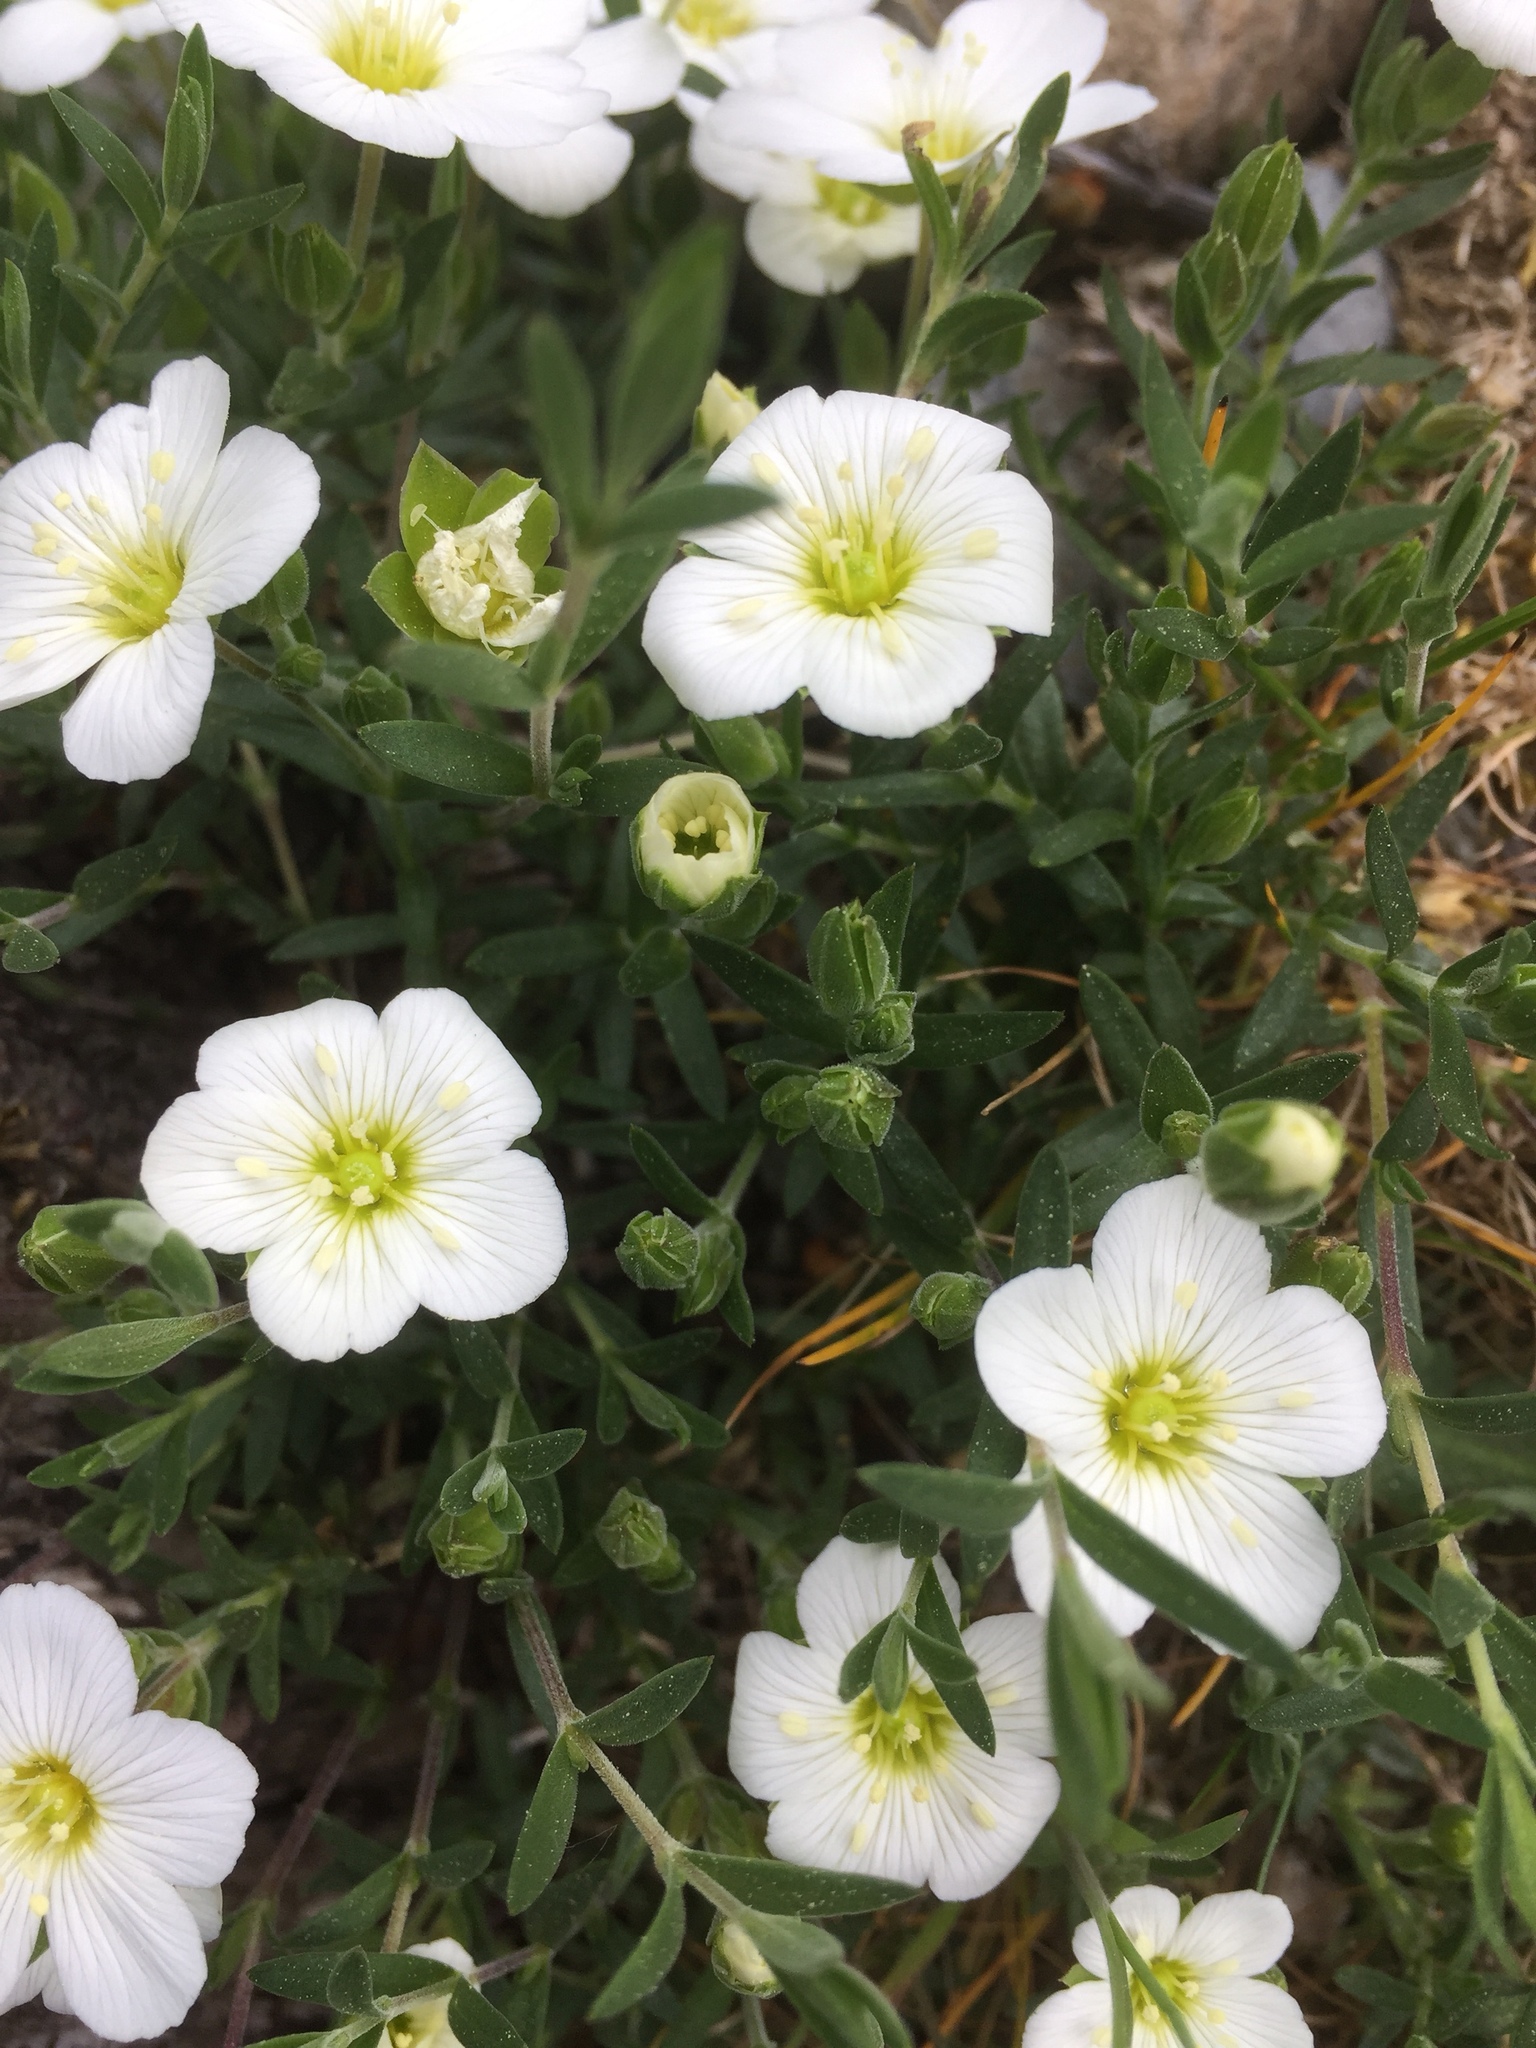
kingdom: Plantae
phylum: Tracheophyta
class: Magnoliopsida
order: Caryophyllales
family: Caryophyllaceae
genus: Arenaria
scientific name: Arenaria montana
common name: Mountain sandwort
